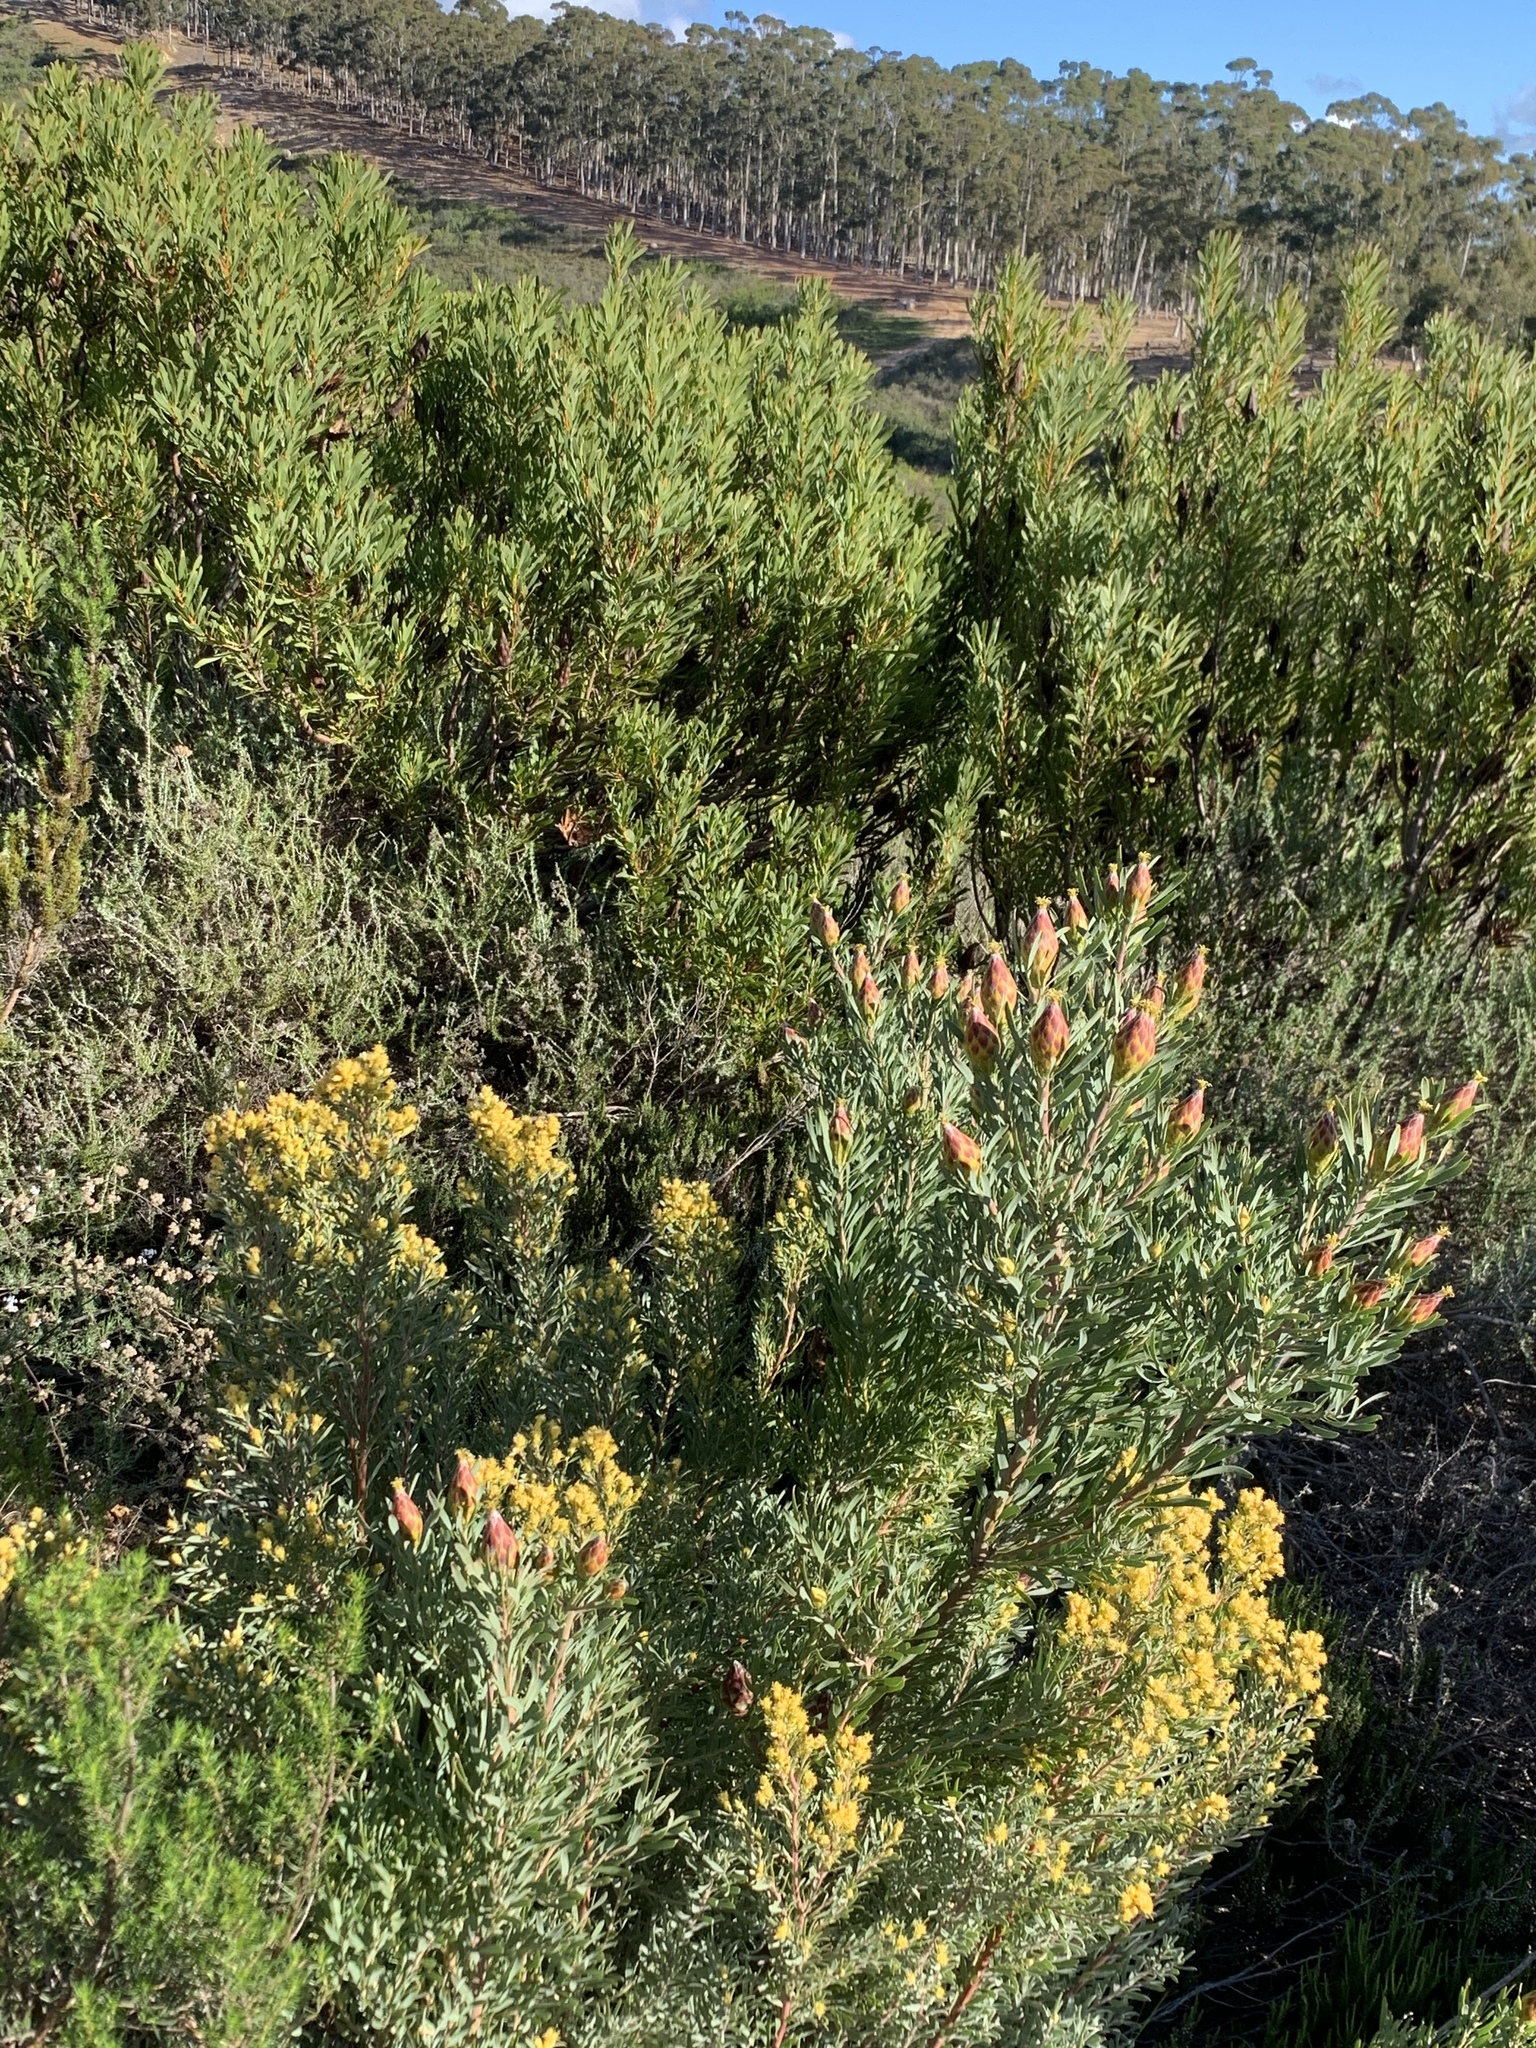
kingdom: Plantae
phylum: Tracheophyta
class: Magnoliopsida
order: Proteales
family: Proteaceae
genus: Leucadendron
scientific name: Leucadendron rubrum
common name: Spinning top
